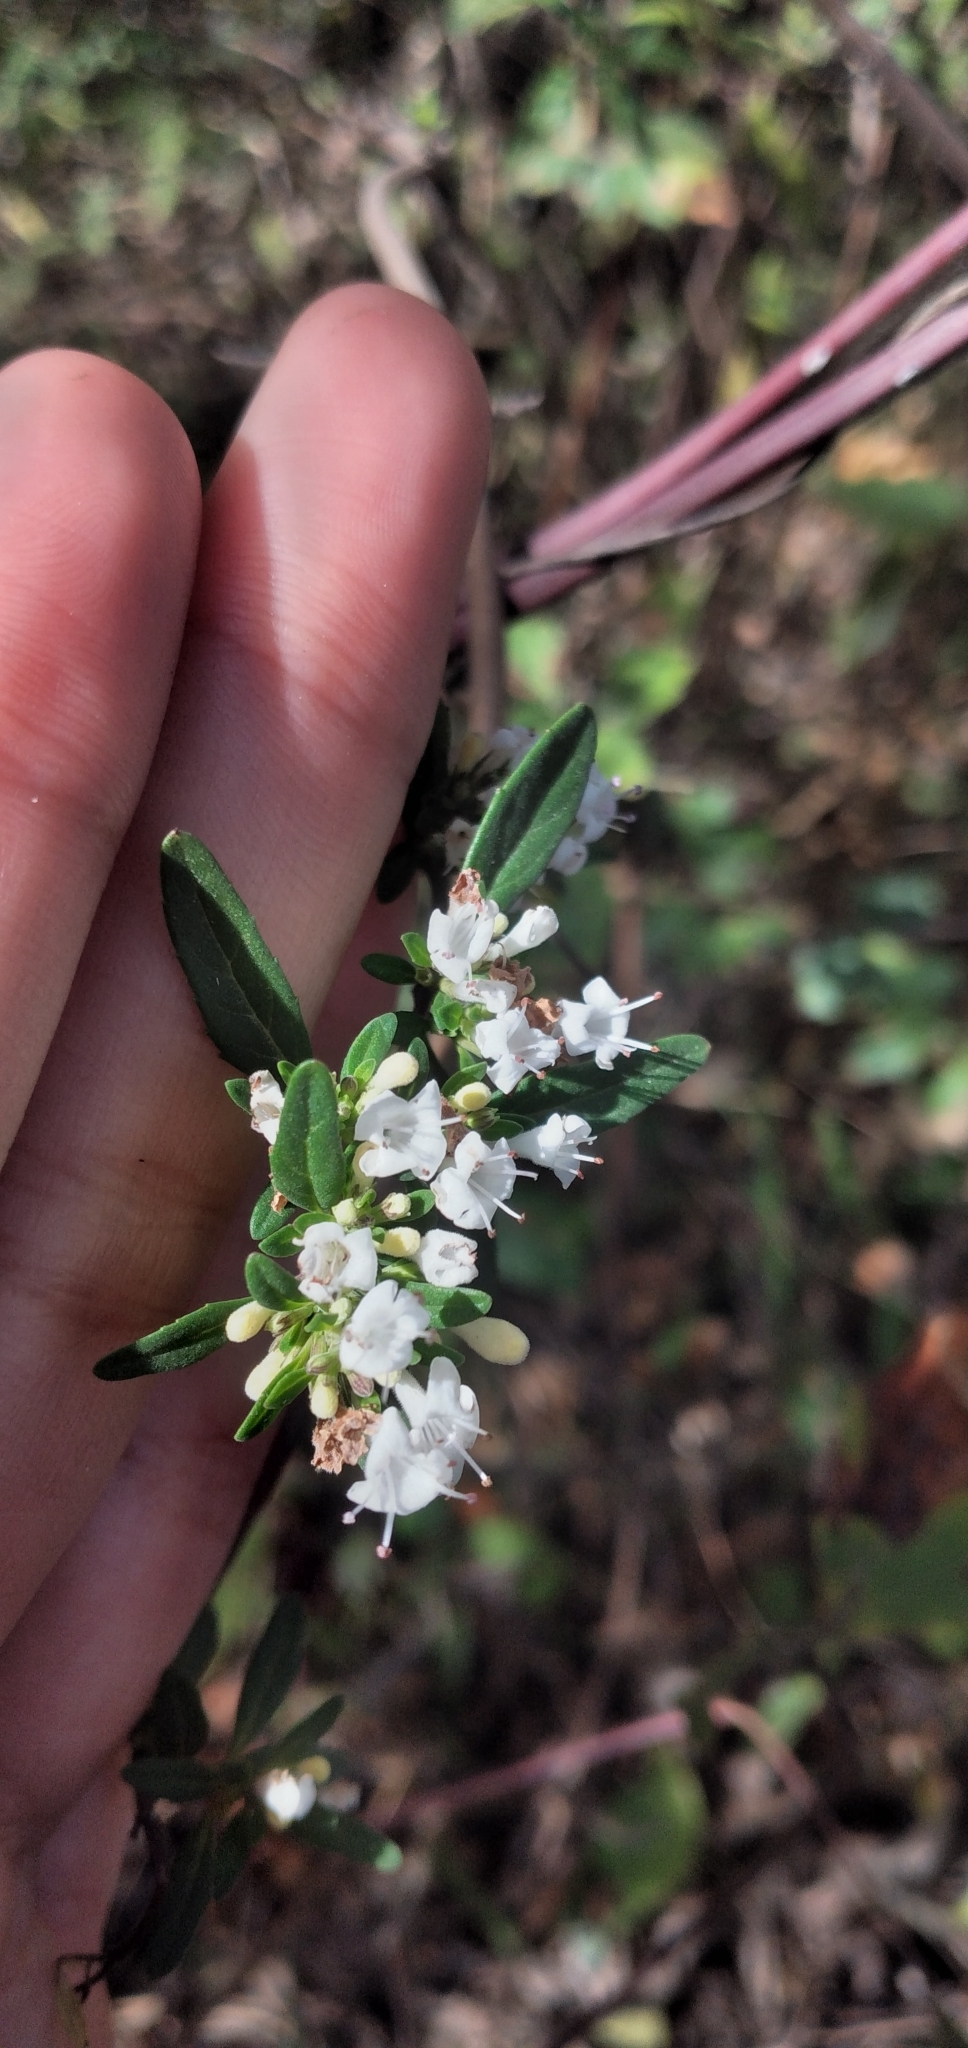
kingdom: Plantae
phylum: Tracheophyta
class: Magnoliopsida
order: Lamiales
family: Lamiaceae
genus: Clinopodium
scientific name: Clinopodium bolivianum
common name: Inca muña
